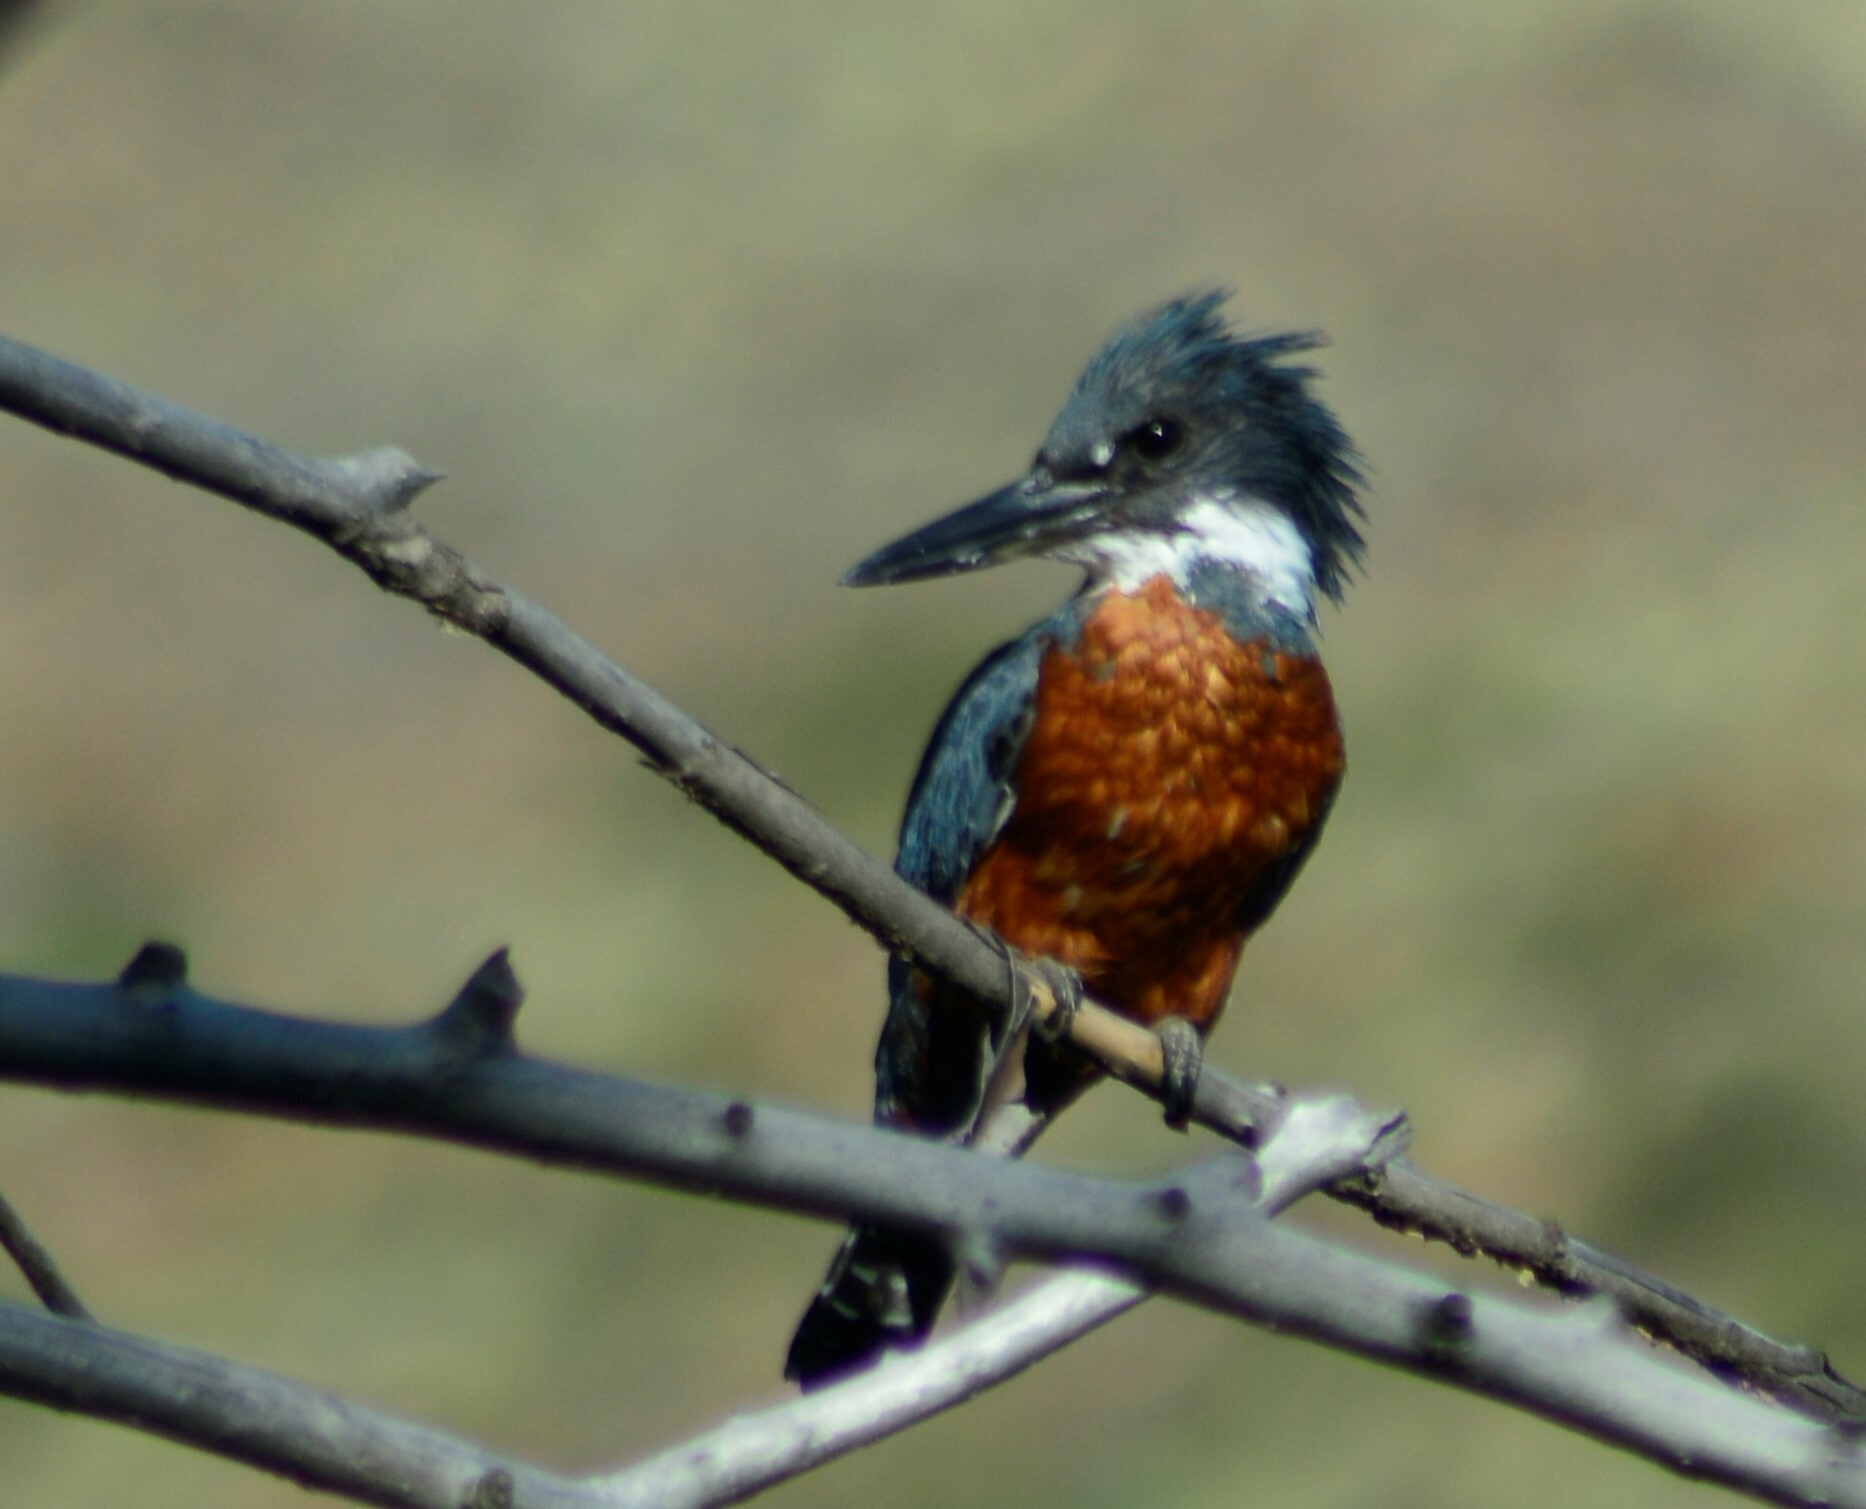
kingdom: Animalia
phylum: Chordata
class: Aves
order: Coraciiformes
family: Alcedinidae
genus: Megaceryle
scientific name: Megaceryle torquata
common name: Ringed kingfisher
